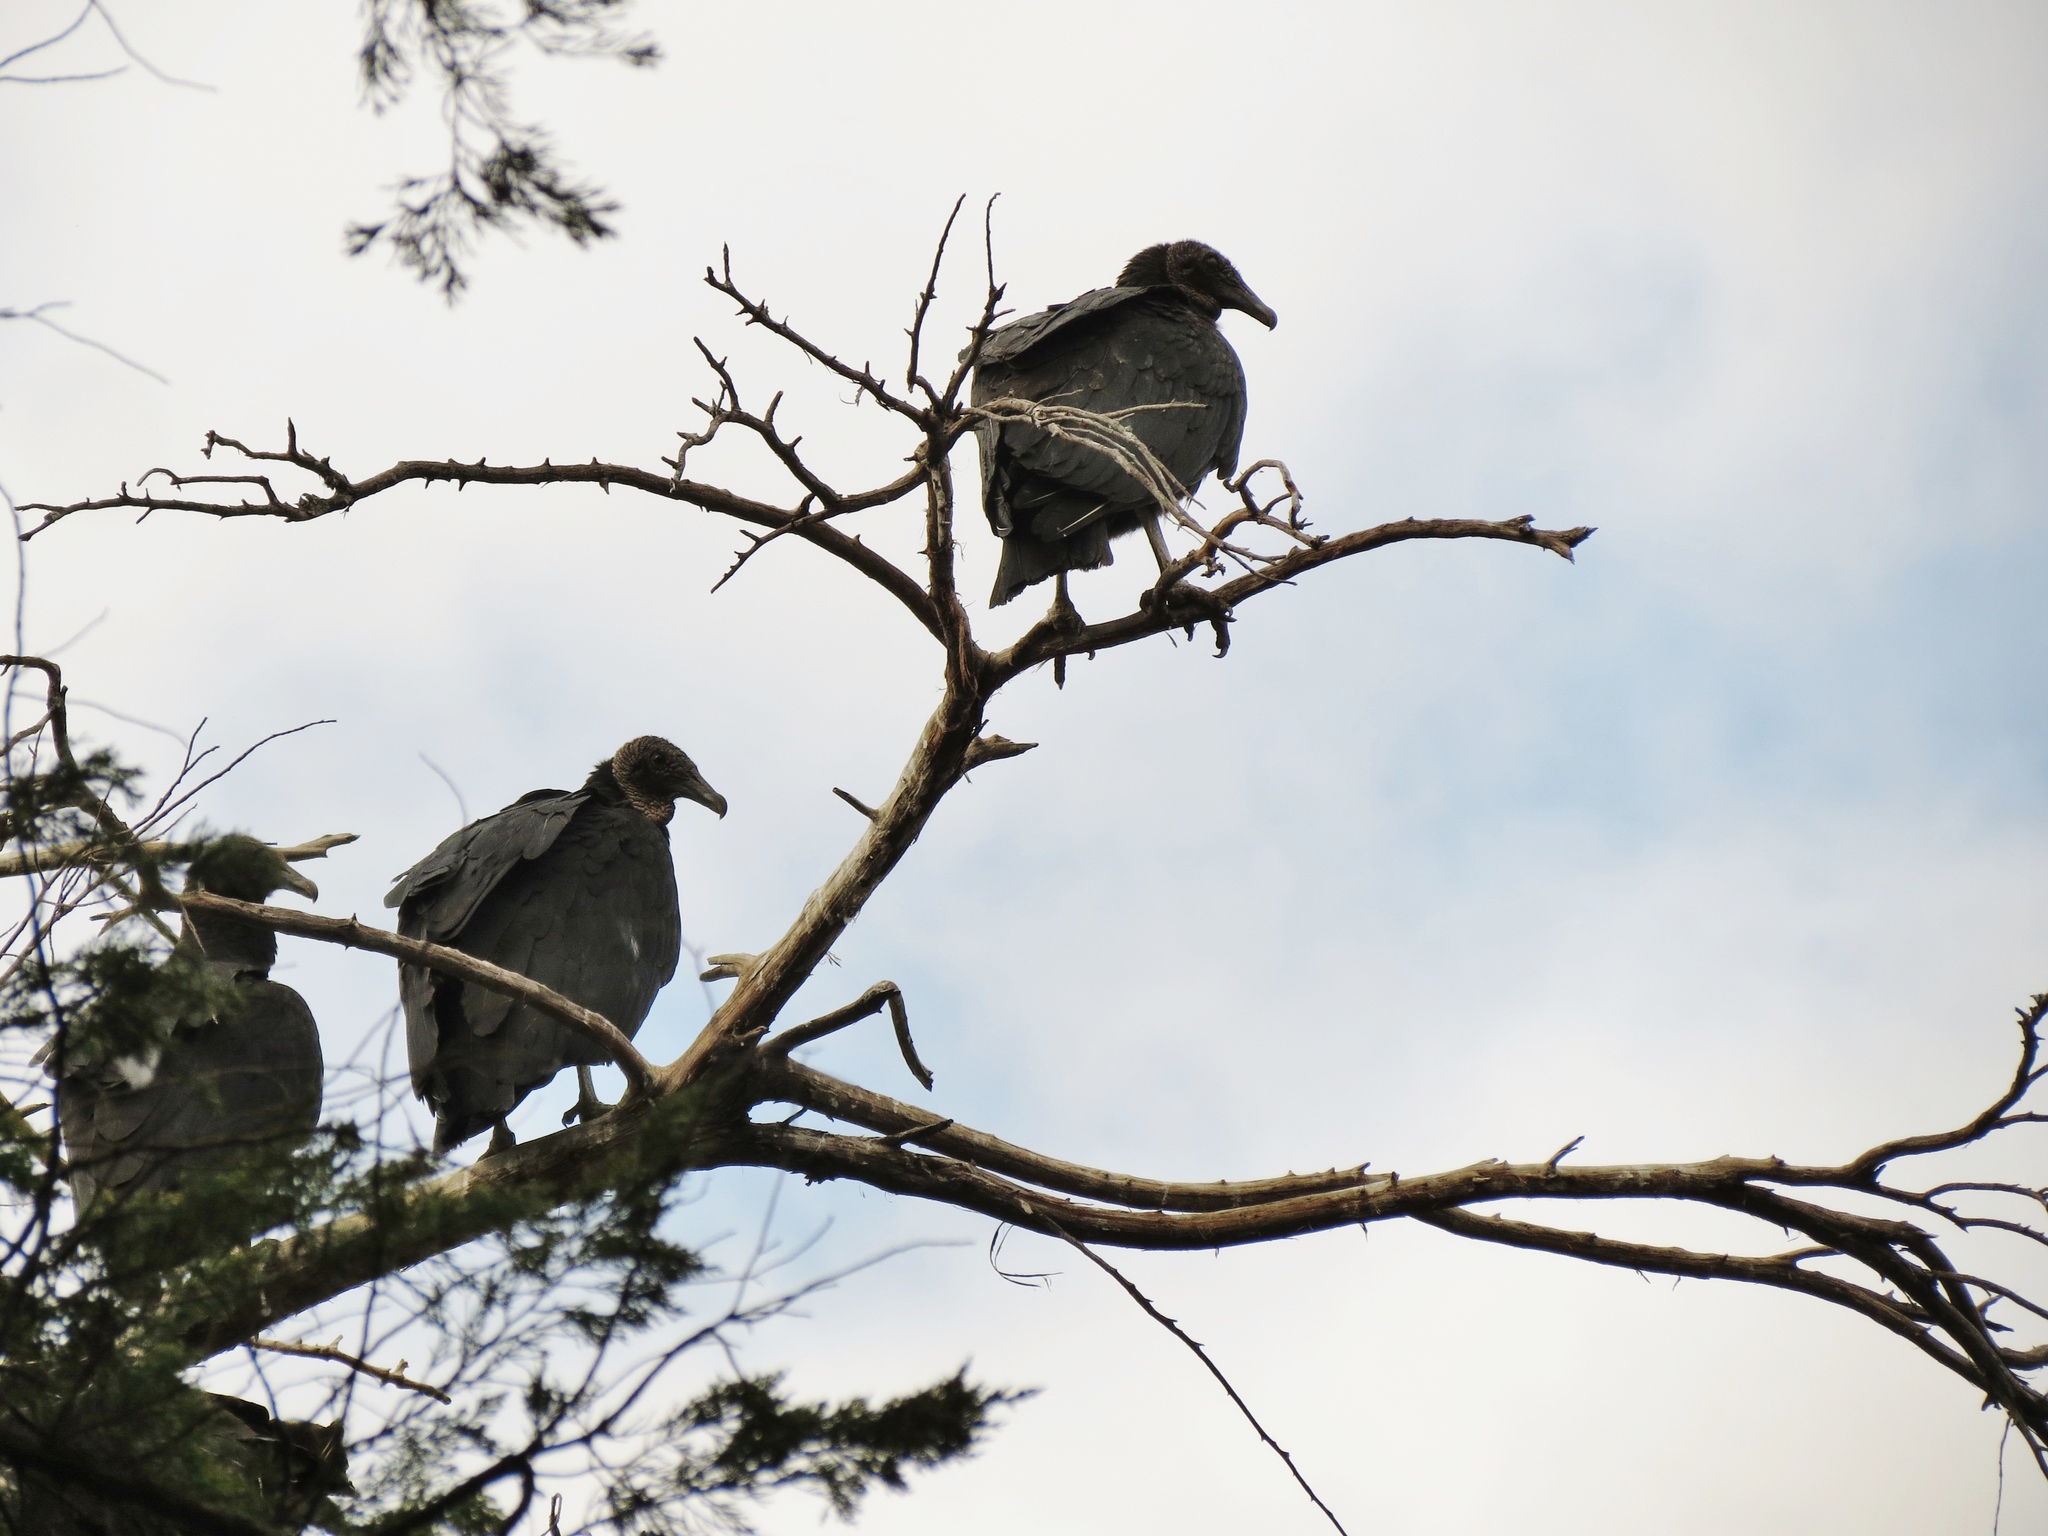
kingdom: Animalia
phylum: Chordata
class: Aves
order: Accipitriformes
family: Cathartidae
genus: Coragyps
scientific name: Coragyps atratus
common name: Black vulture
